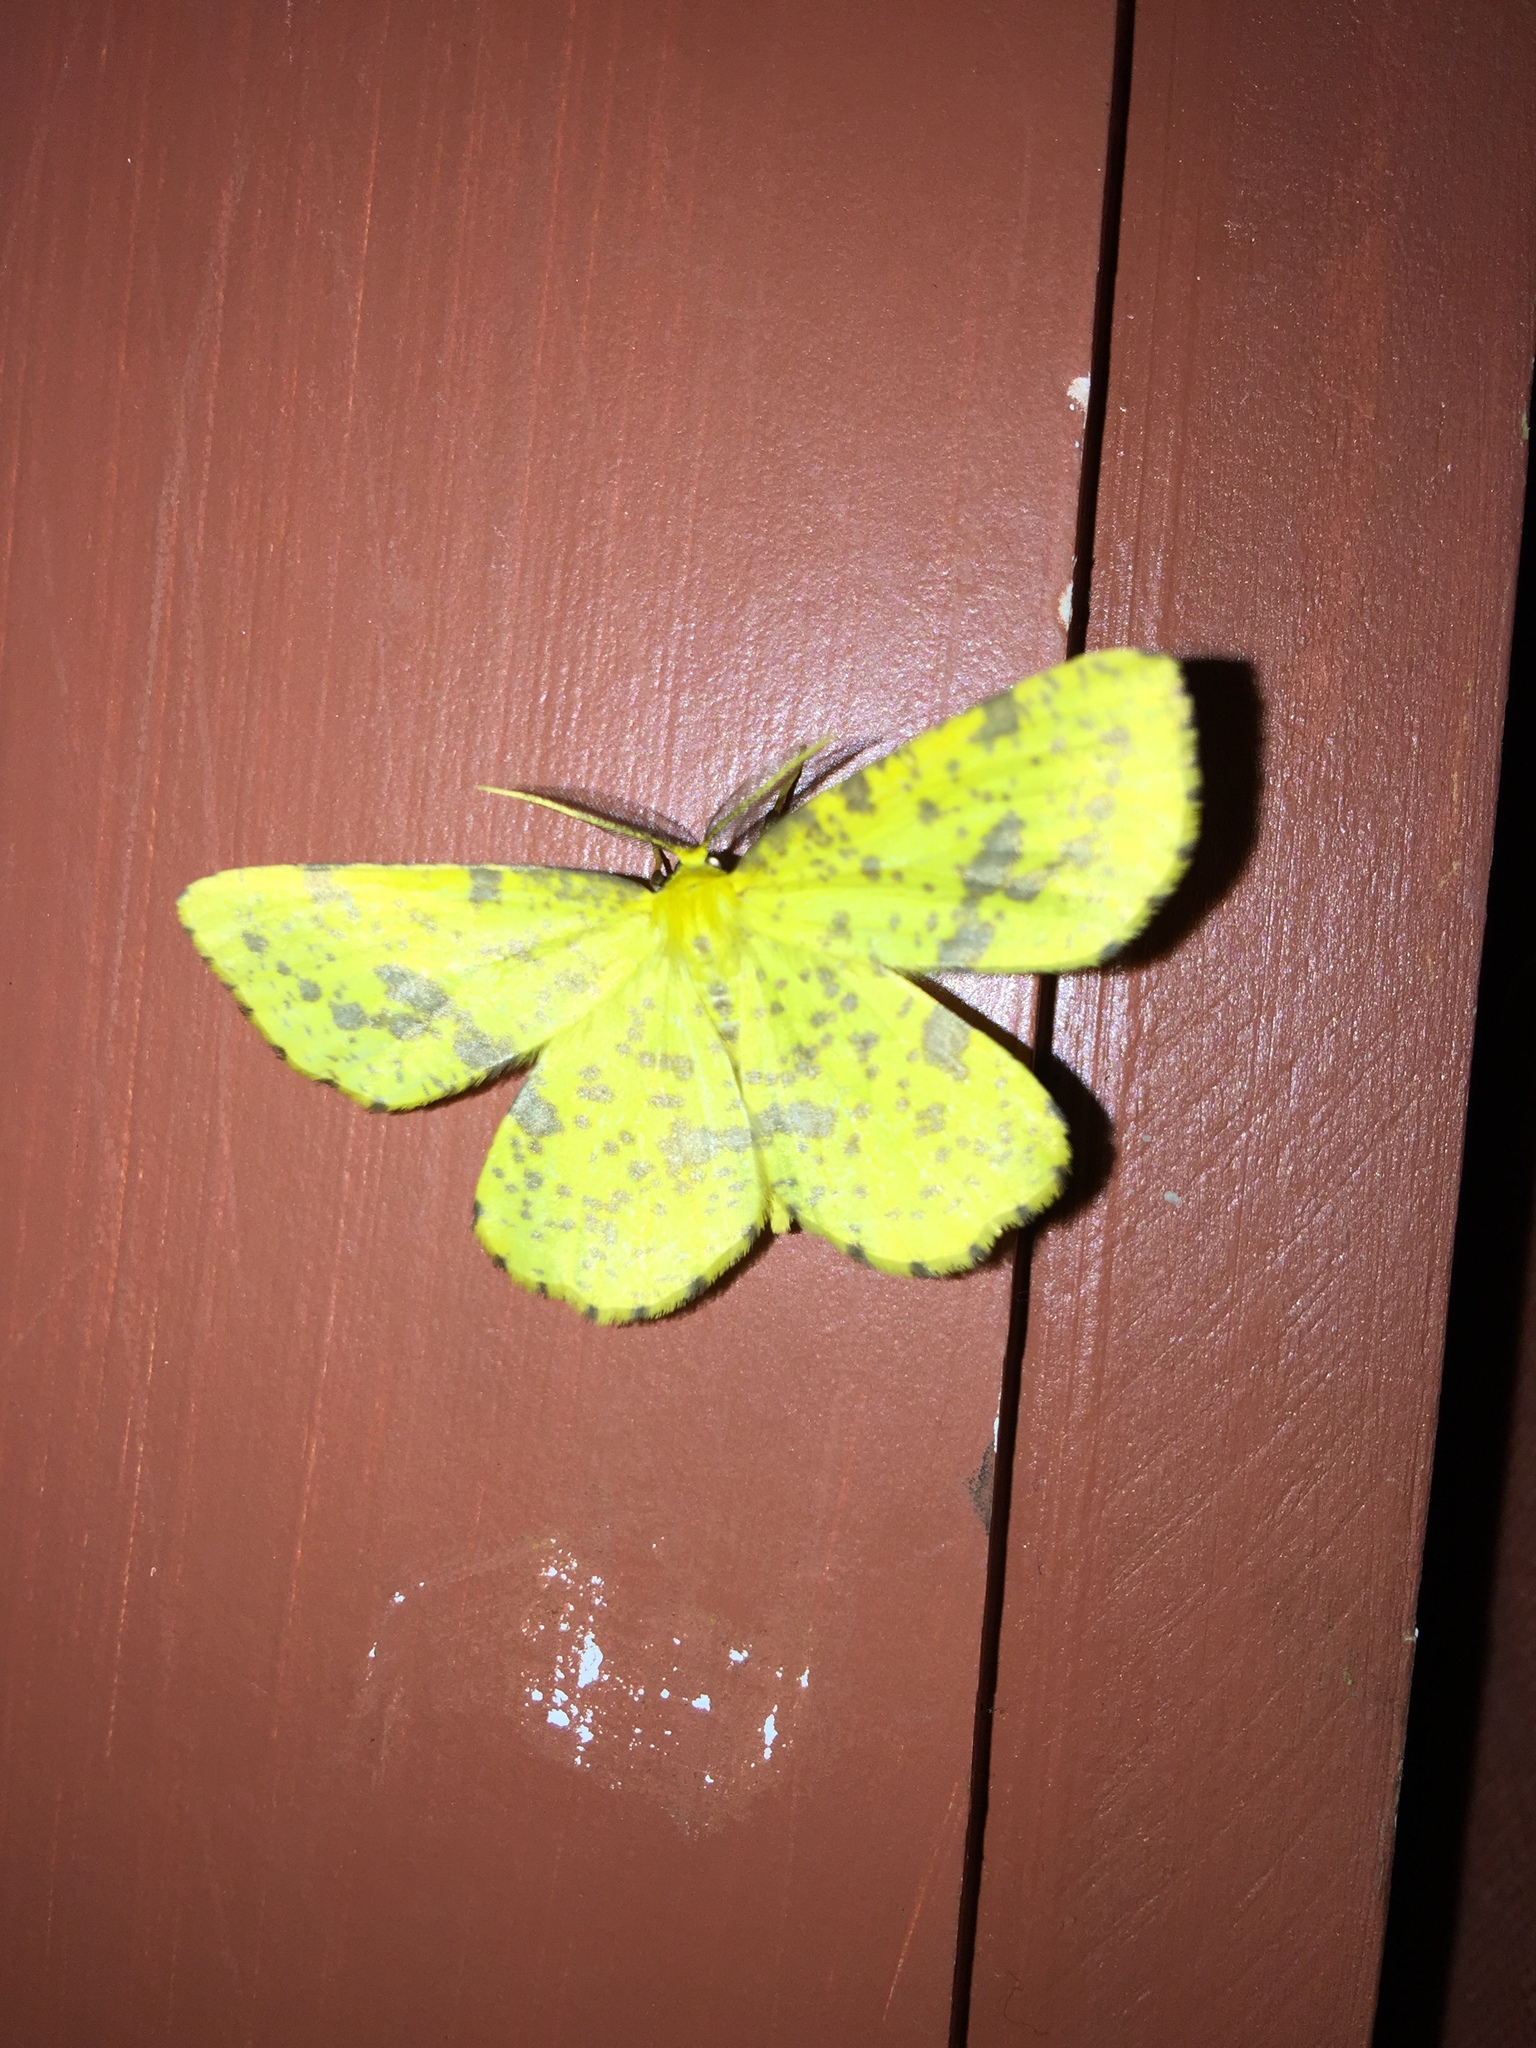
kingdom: Animalia
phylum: Arthropoda
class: Insecta
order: Lepidoptera
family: Geometridae
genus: Xanthotype
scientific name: Xanthotype
